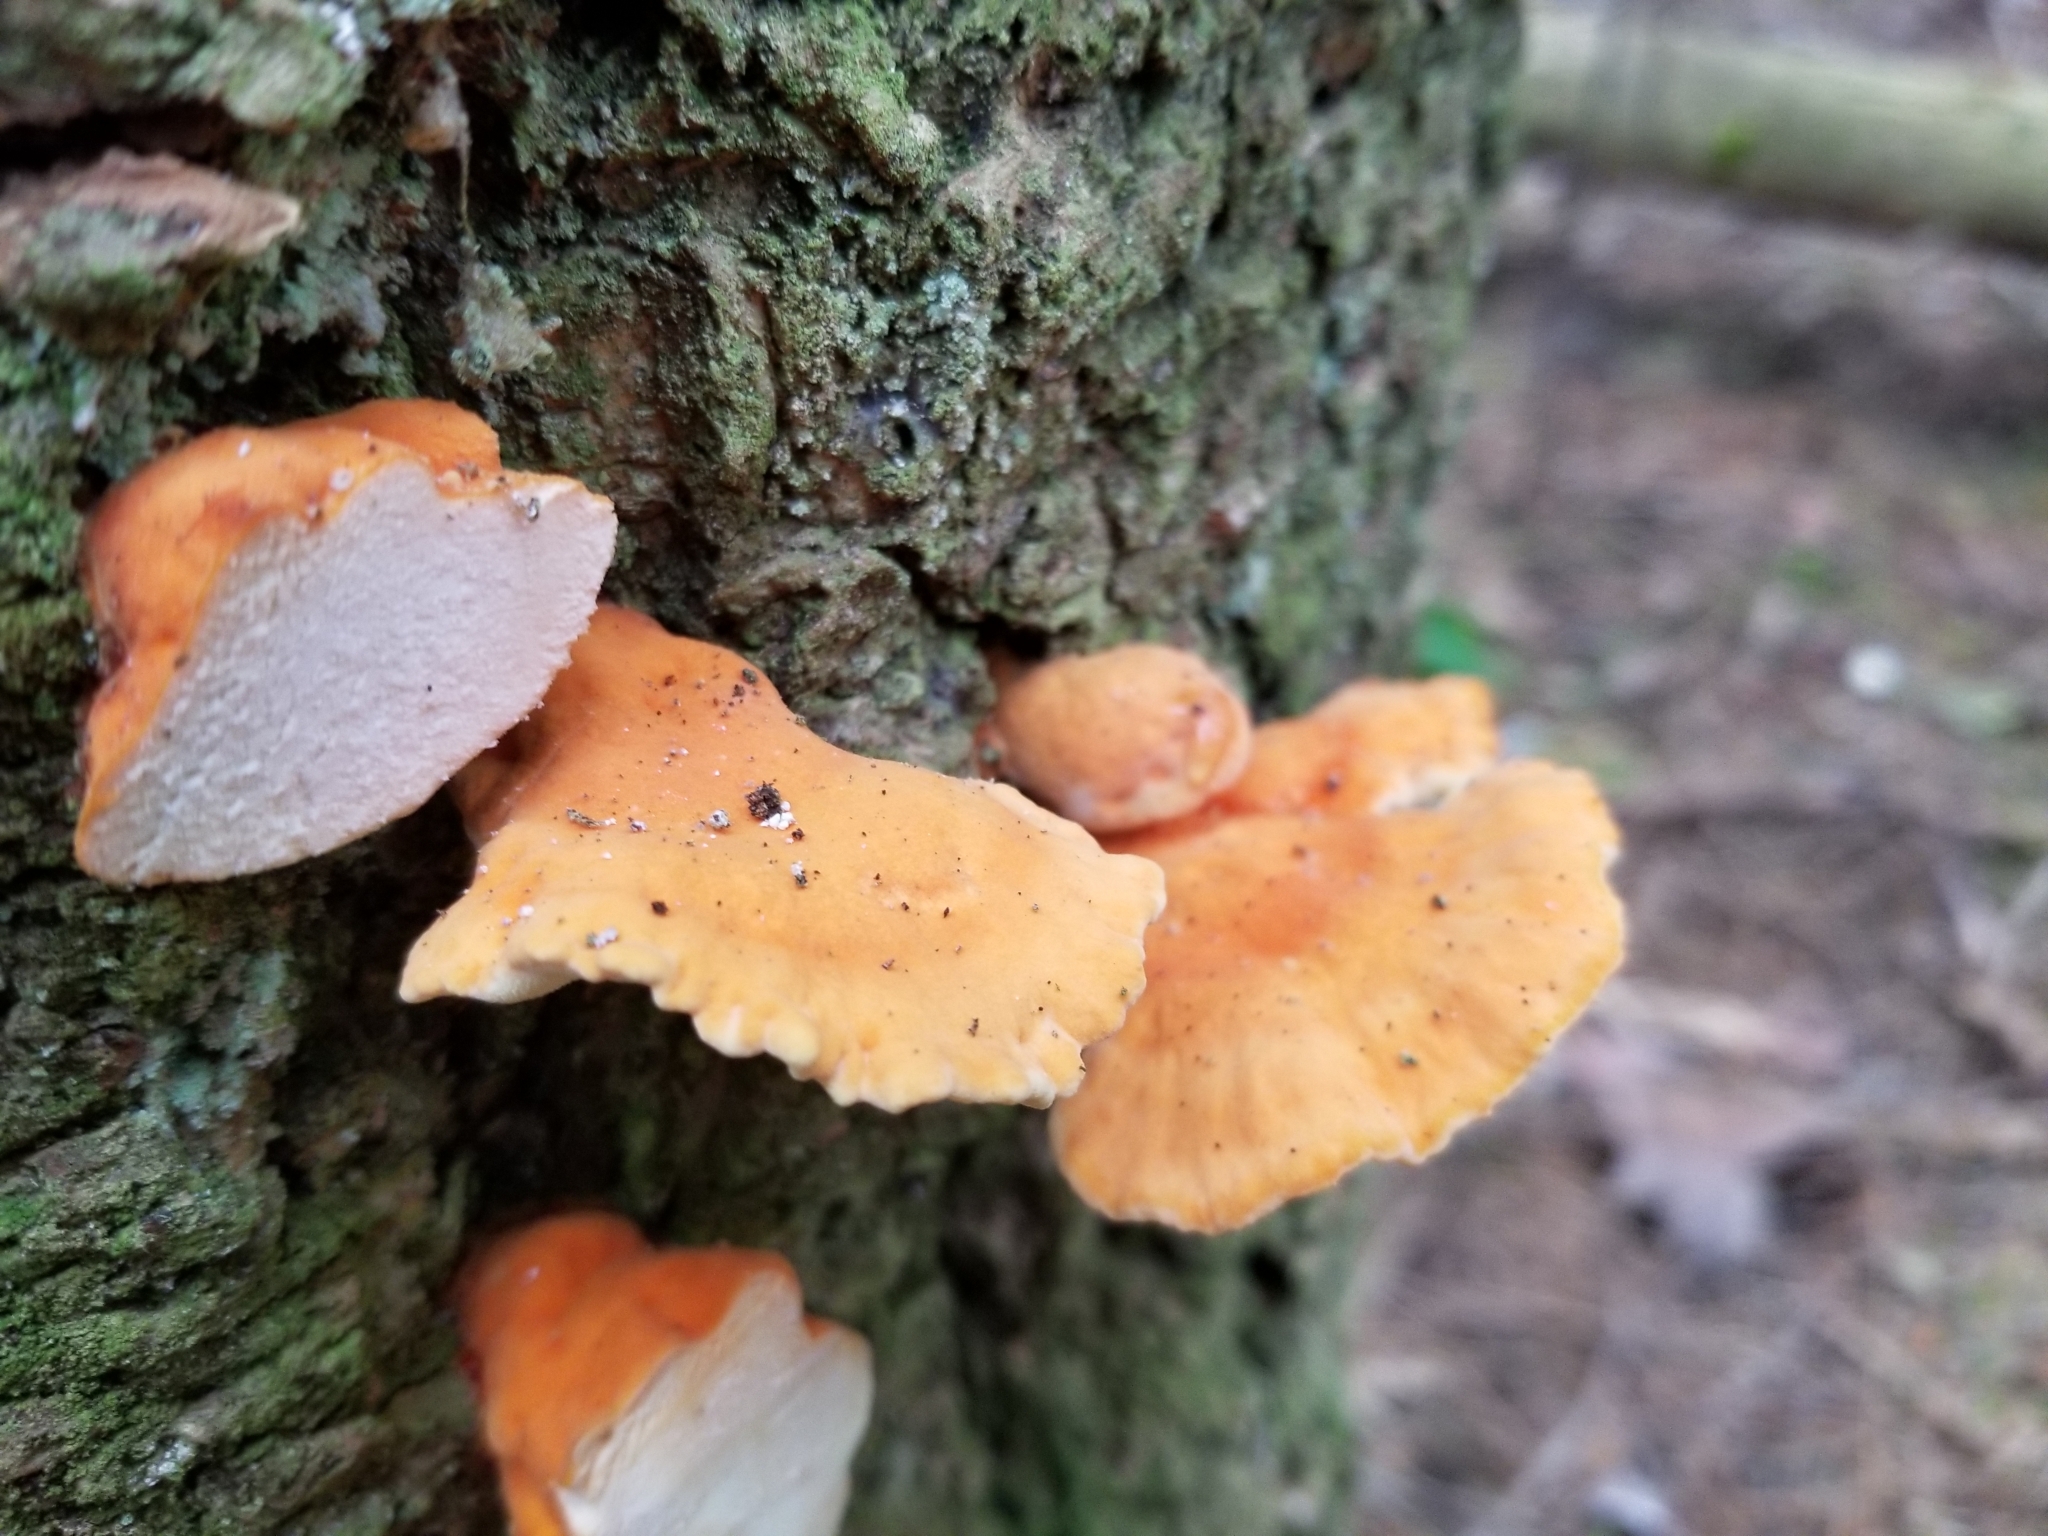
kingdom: Fungi
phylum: Basidiomycota
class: Agaricomycetes
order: Polyporales
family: Laetiporaceae
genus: Laetiporus
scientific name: Laetiporus conifericola
